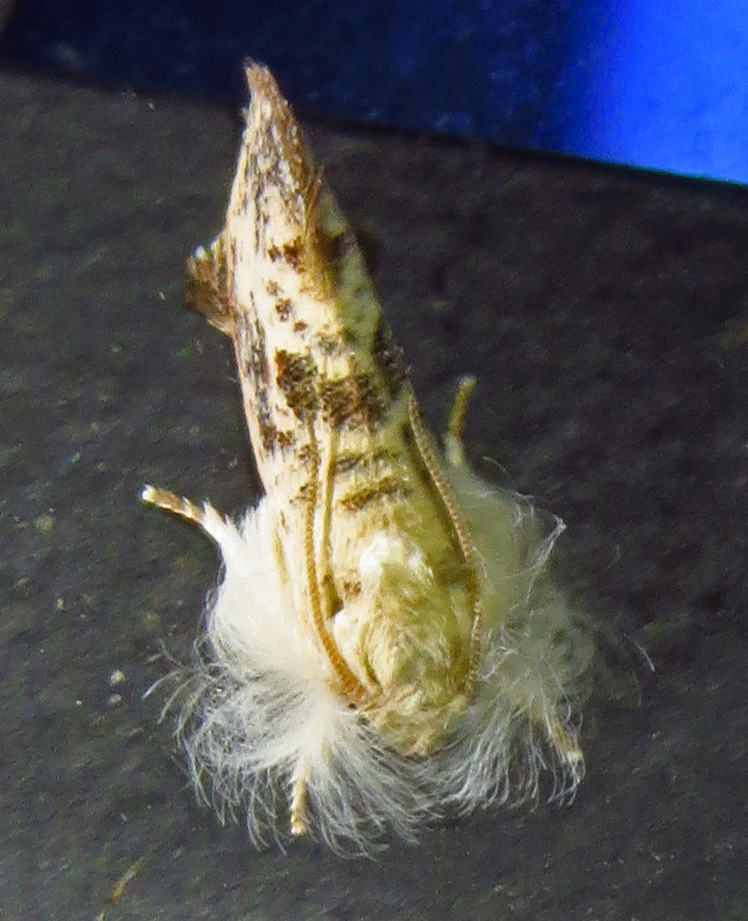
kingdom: Animalia
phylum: Arthropoda
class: Insecta
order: Lepidoptera
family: Tineidae
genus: Acrolophus
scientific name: Acrolophus mycetophagus
